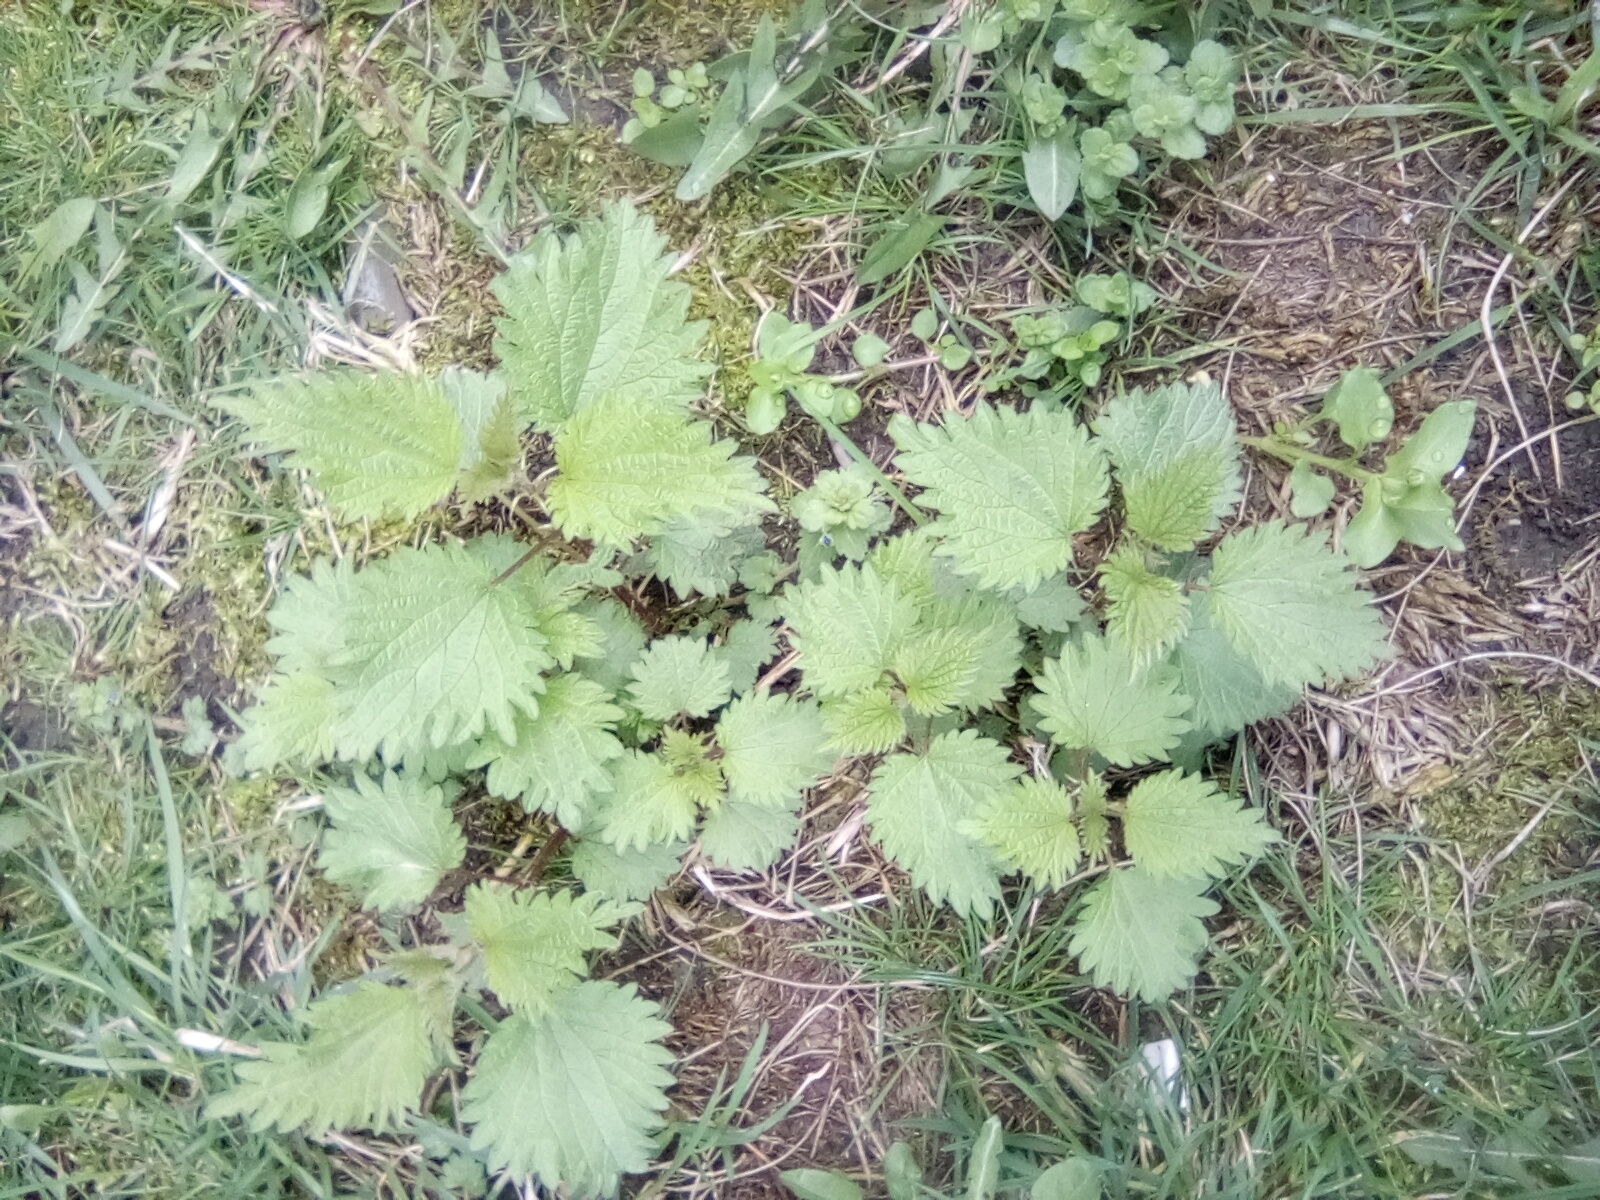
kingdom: Plantae
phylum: Tracheophyta
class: Magnoliopsida
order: Rosales
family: Urticaceae
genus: Urtica
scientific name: Urtica dioica
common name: Common nettle
